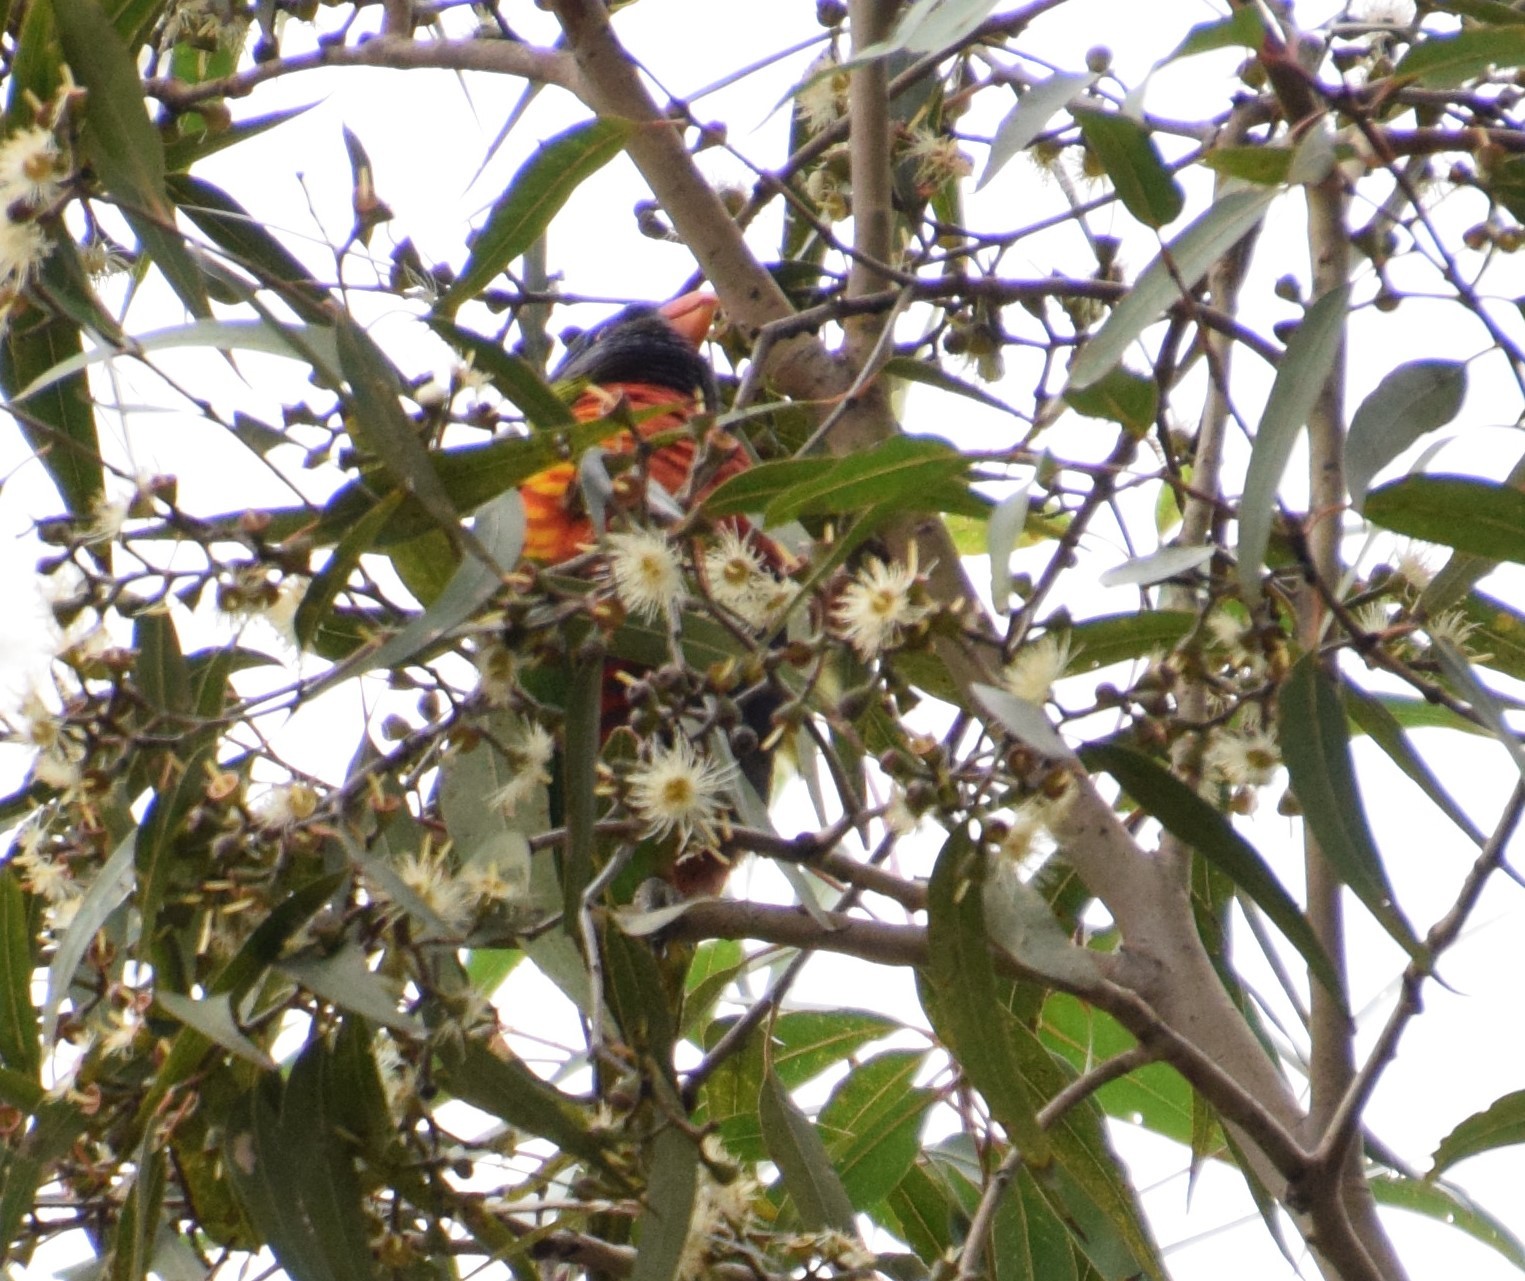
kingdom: Animalia
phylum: Chordata
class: Aves
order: Psittaciformes
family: Psittacidae
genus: Trichoglossus
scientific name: Trichoglossus haematodus
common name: Coconut lorikeet
